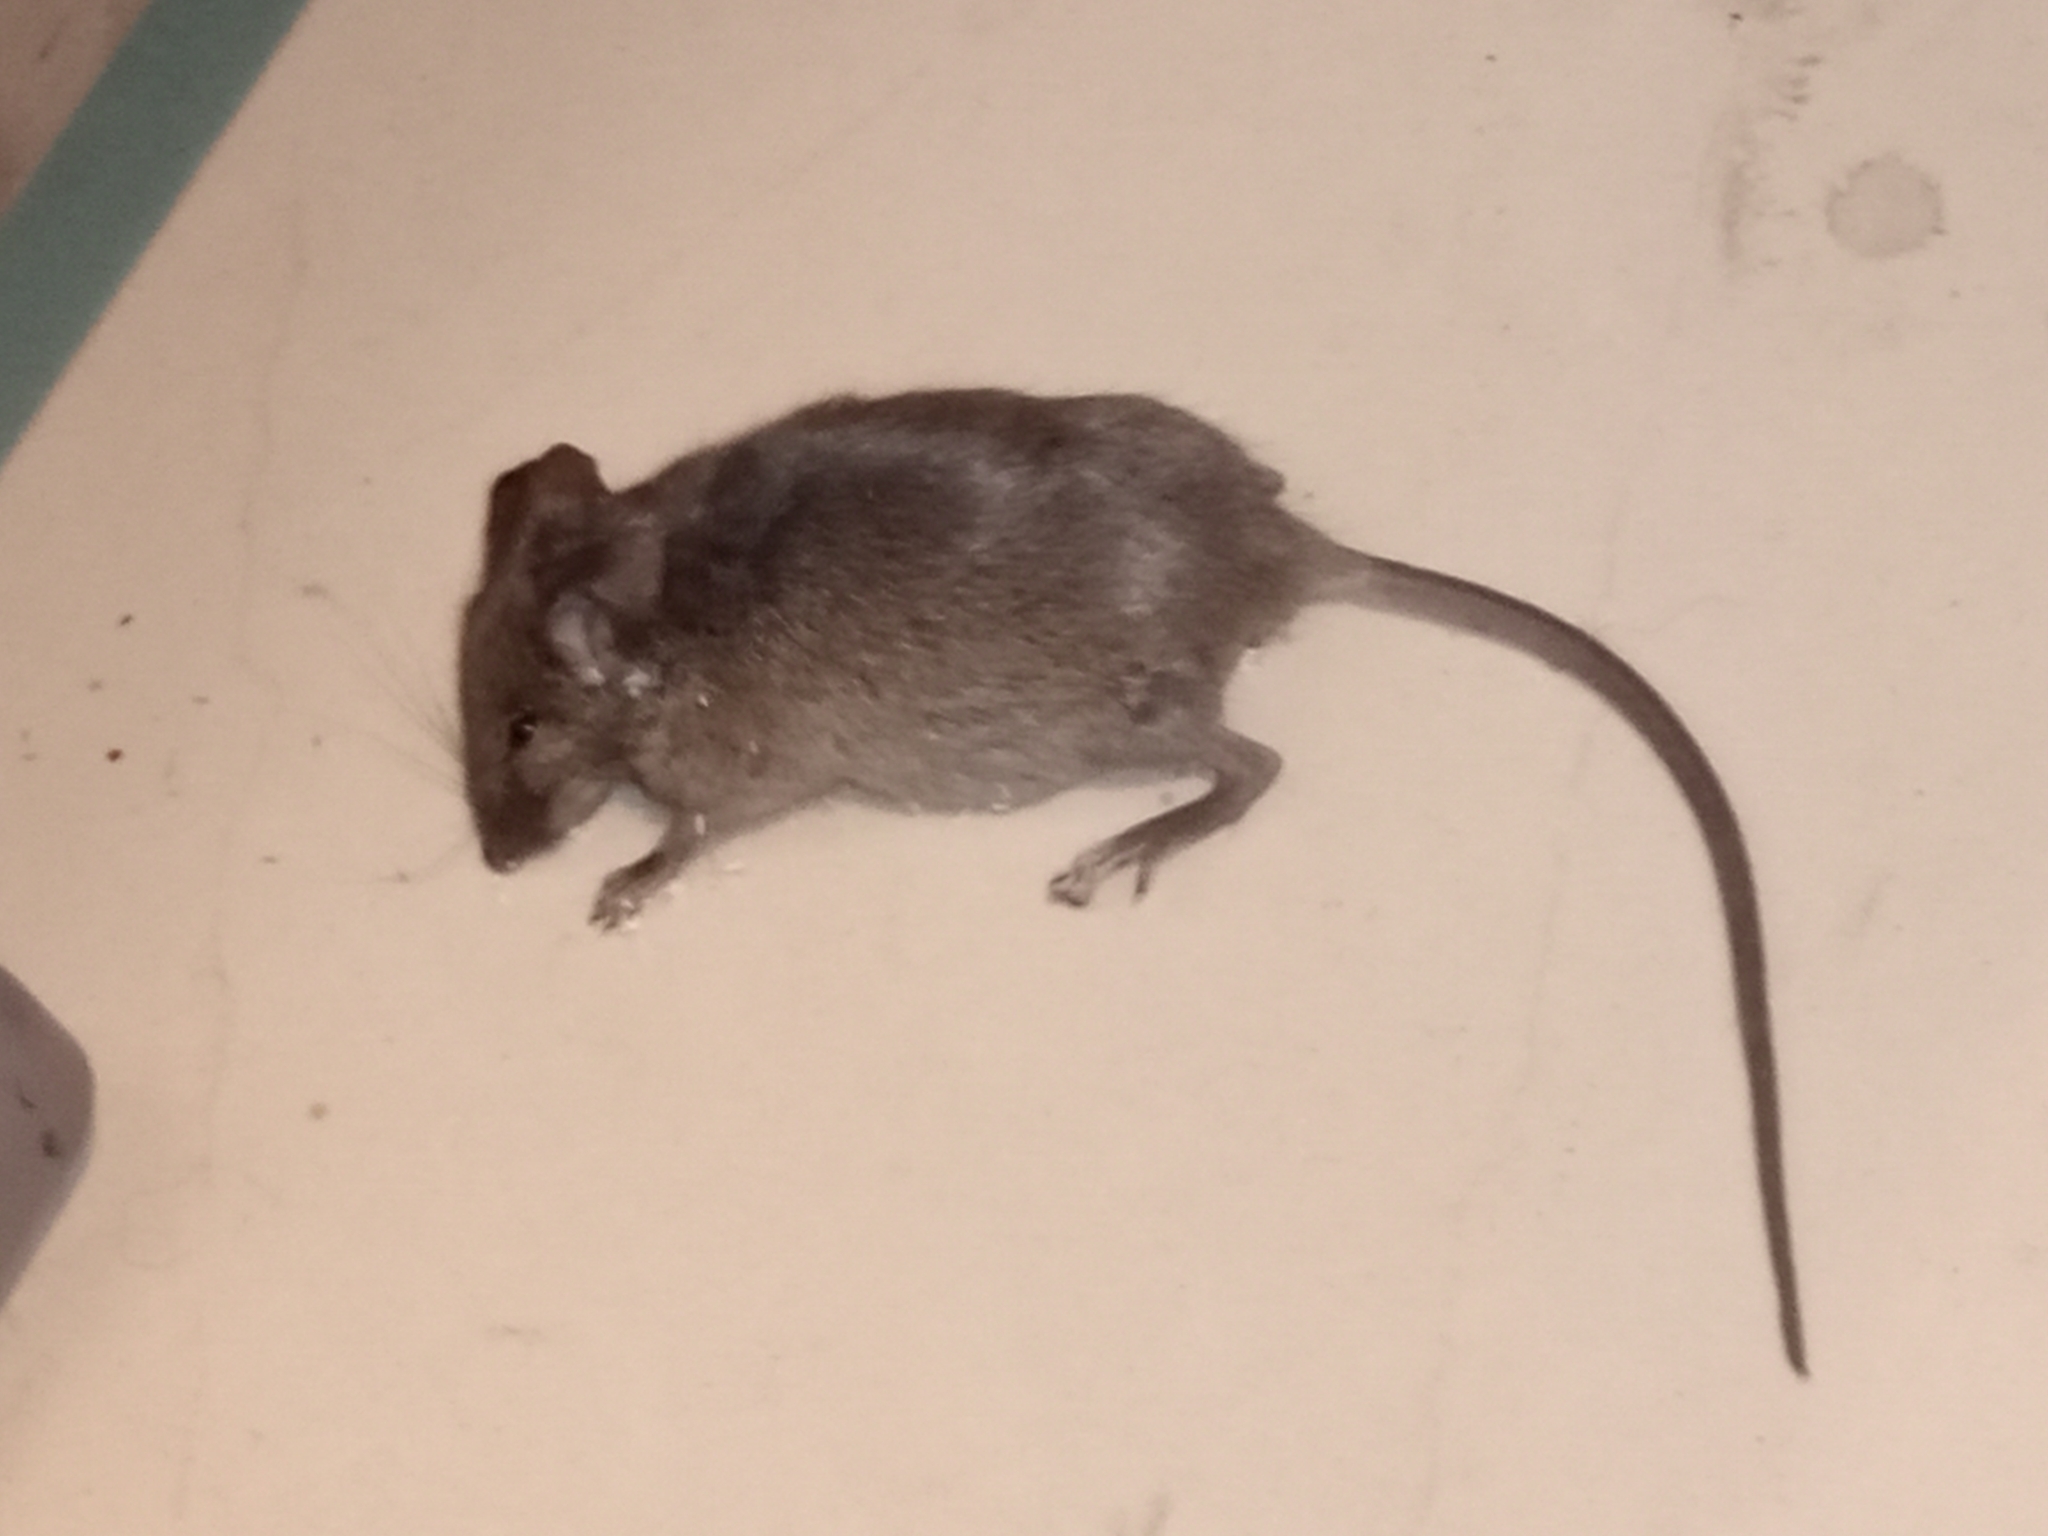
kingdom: Animalia
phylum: Chordata
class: Mammalia
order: Rodentia
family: Muridae
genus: Mus
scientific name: Mus musculus
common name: House mouse
